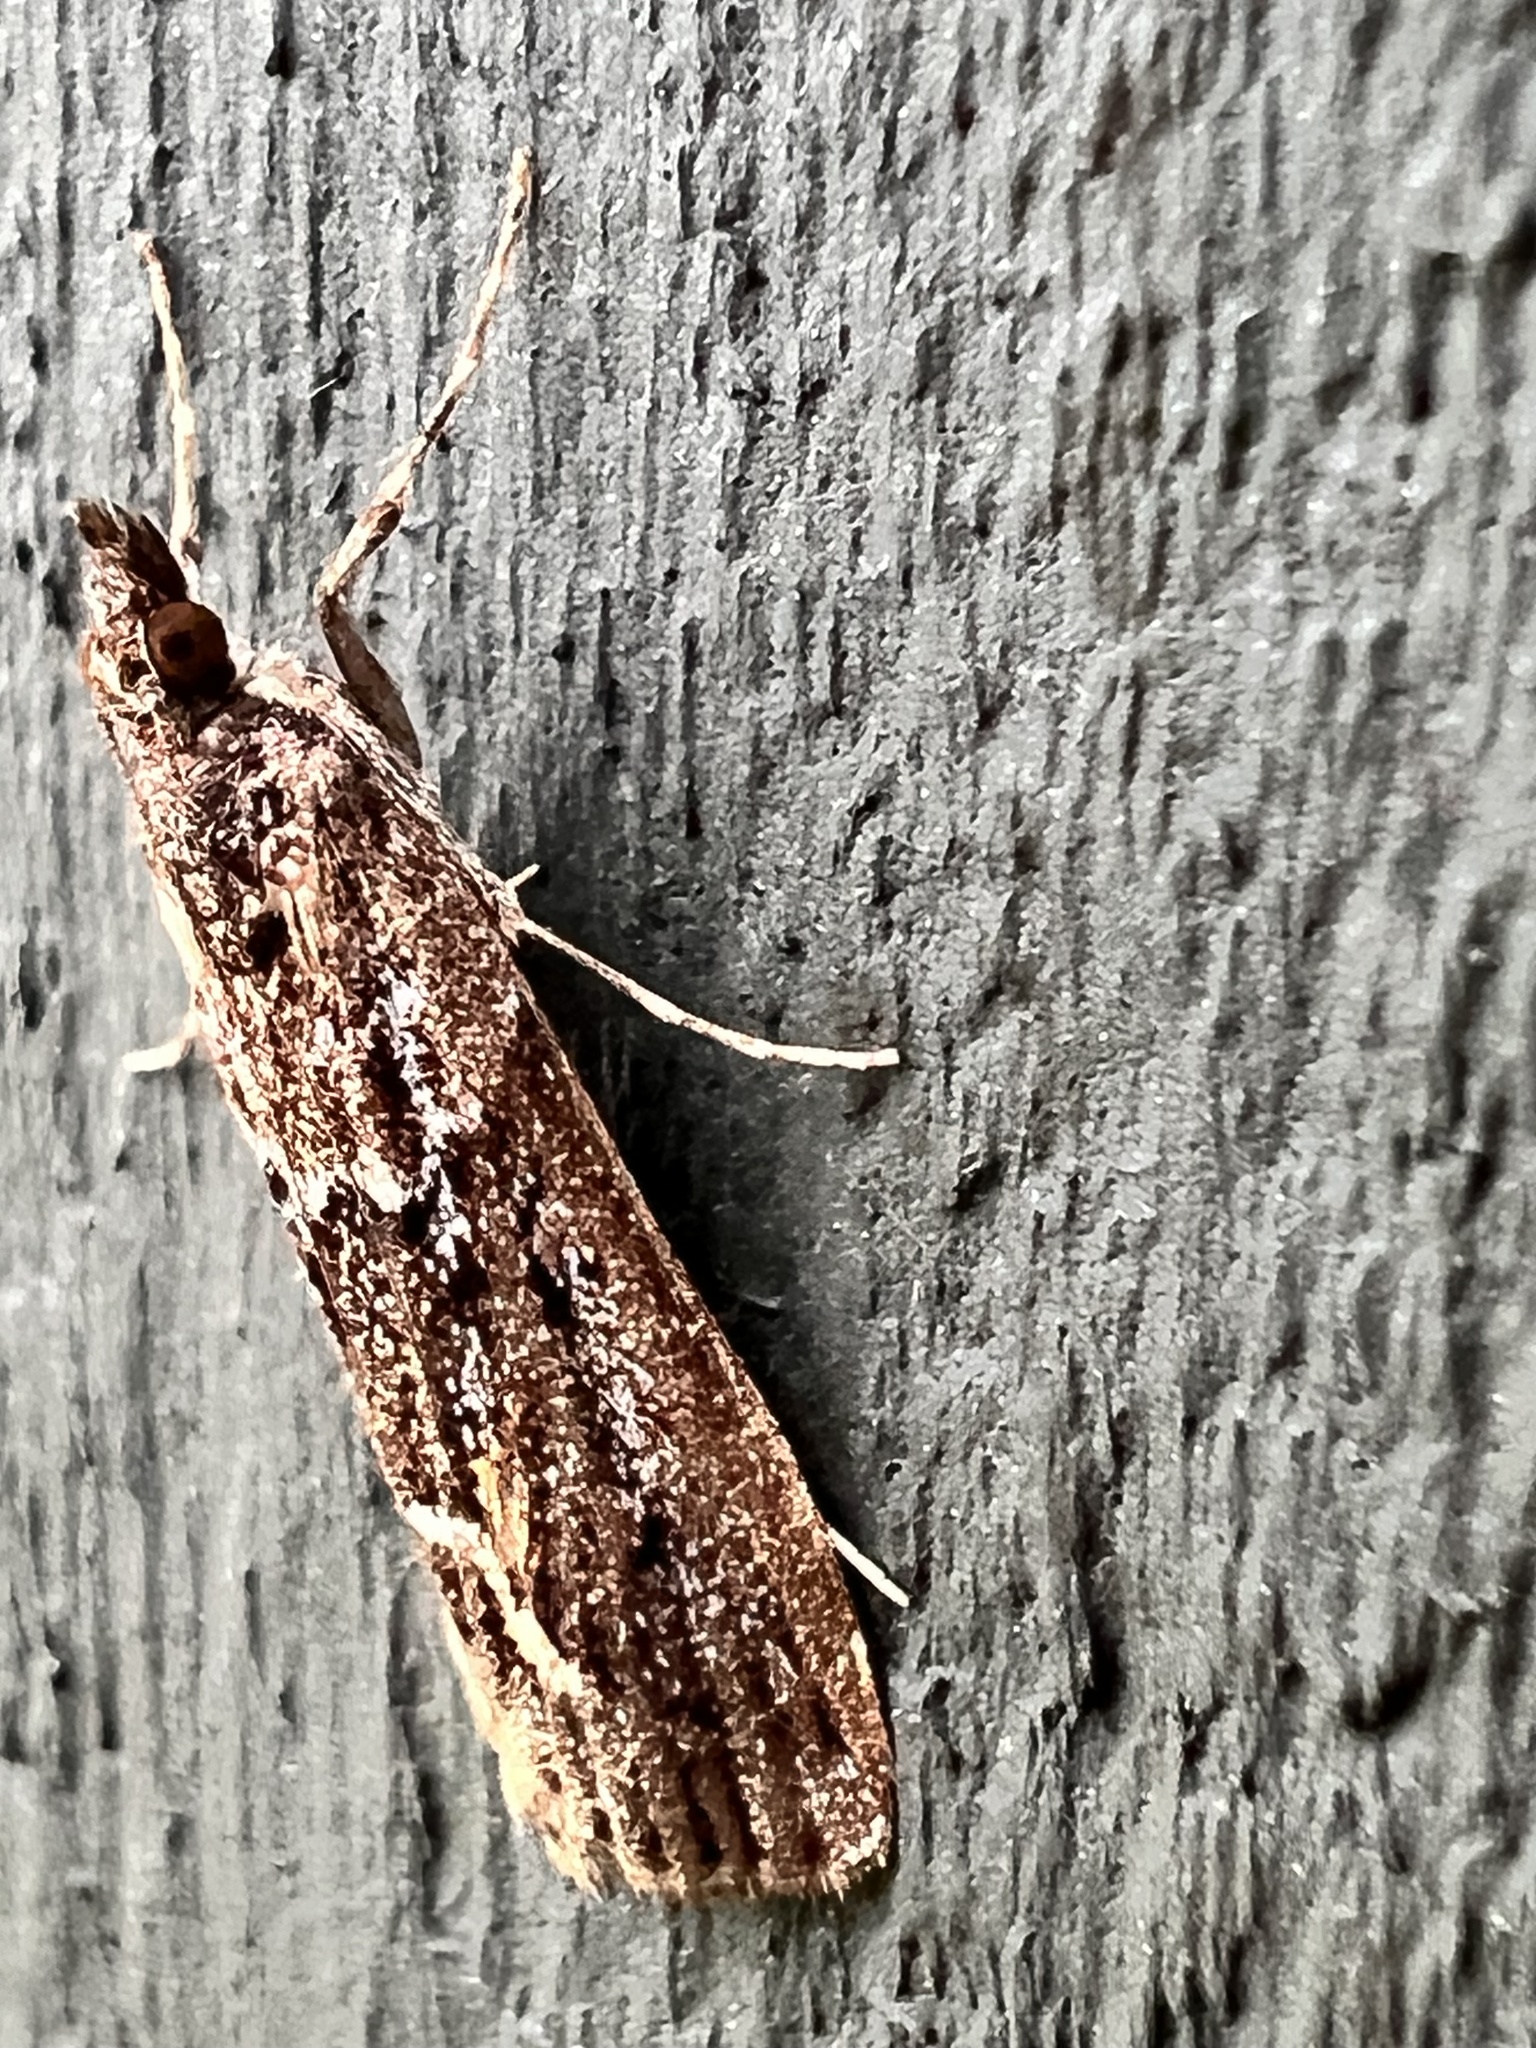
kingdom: Animalia
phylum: Arthropoda
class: Insecta
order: Lepidoptera
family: Crambidae
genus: Eudonia
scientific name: Eudonia submarginalis
